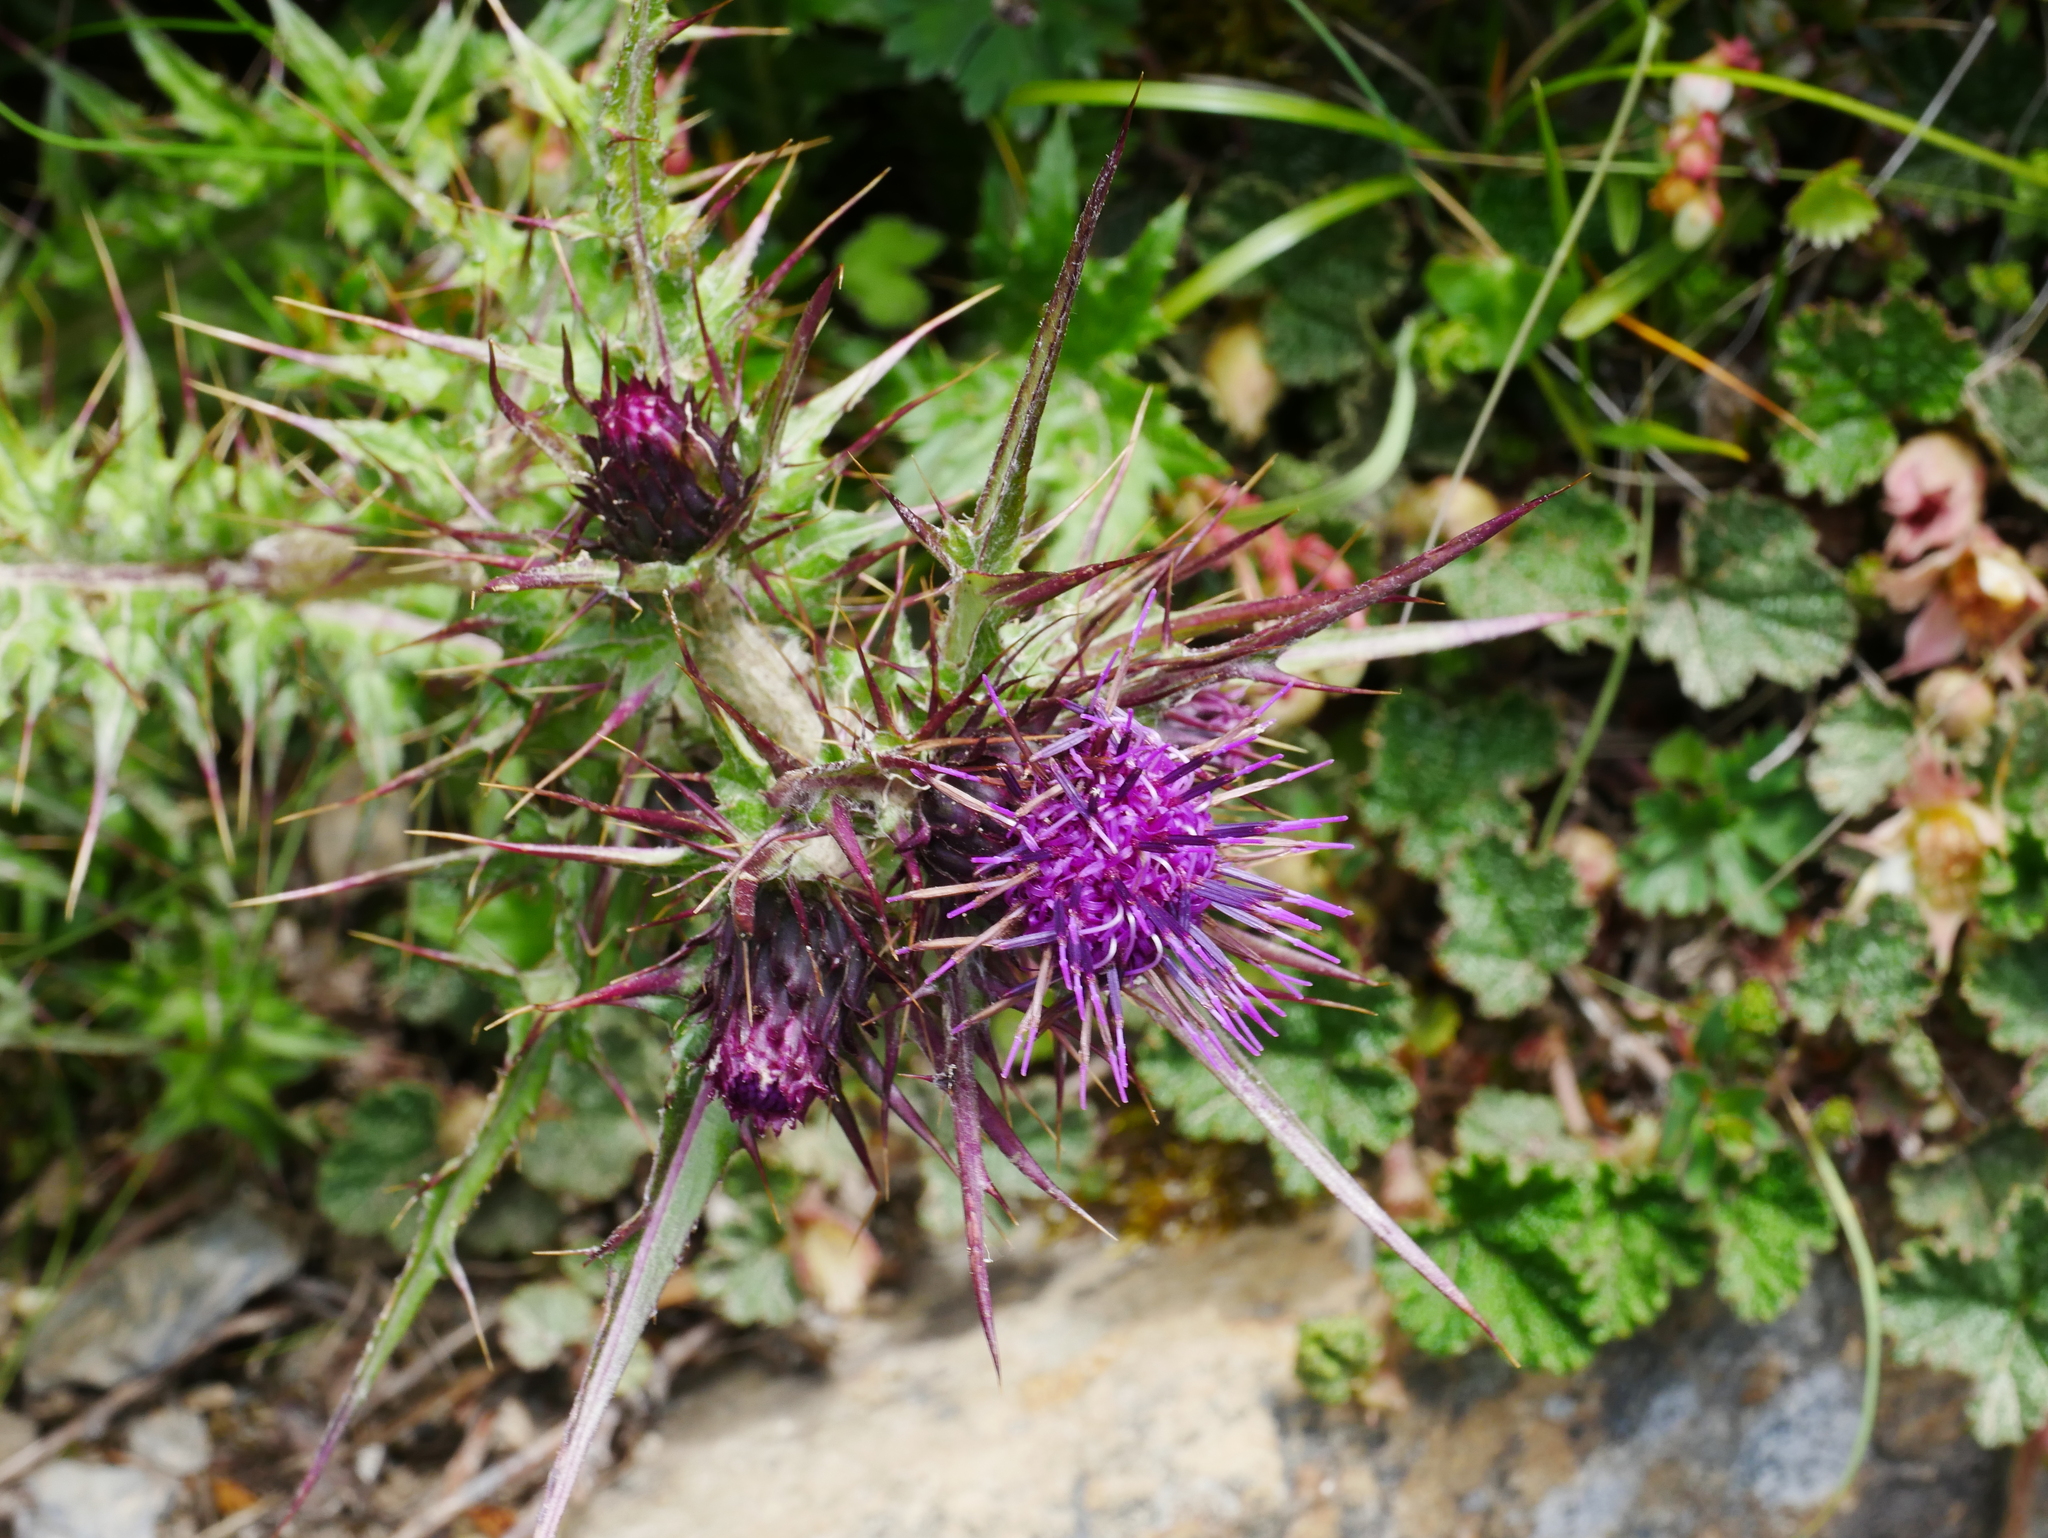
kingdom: Plantae
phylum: Tracheophyta
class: Magnoliopsida
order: Asterales
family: Asteraceae
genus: Cirsium
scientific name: Cirsium arisanense
